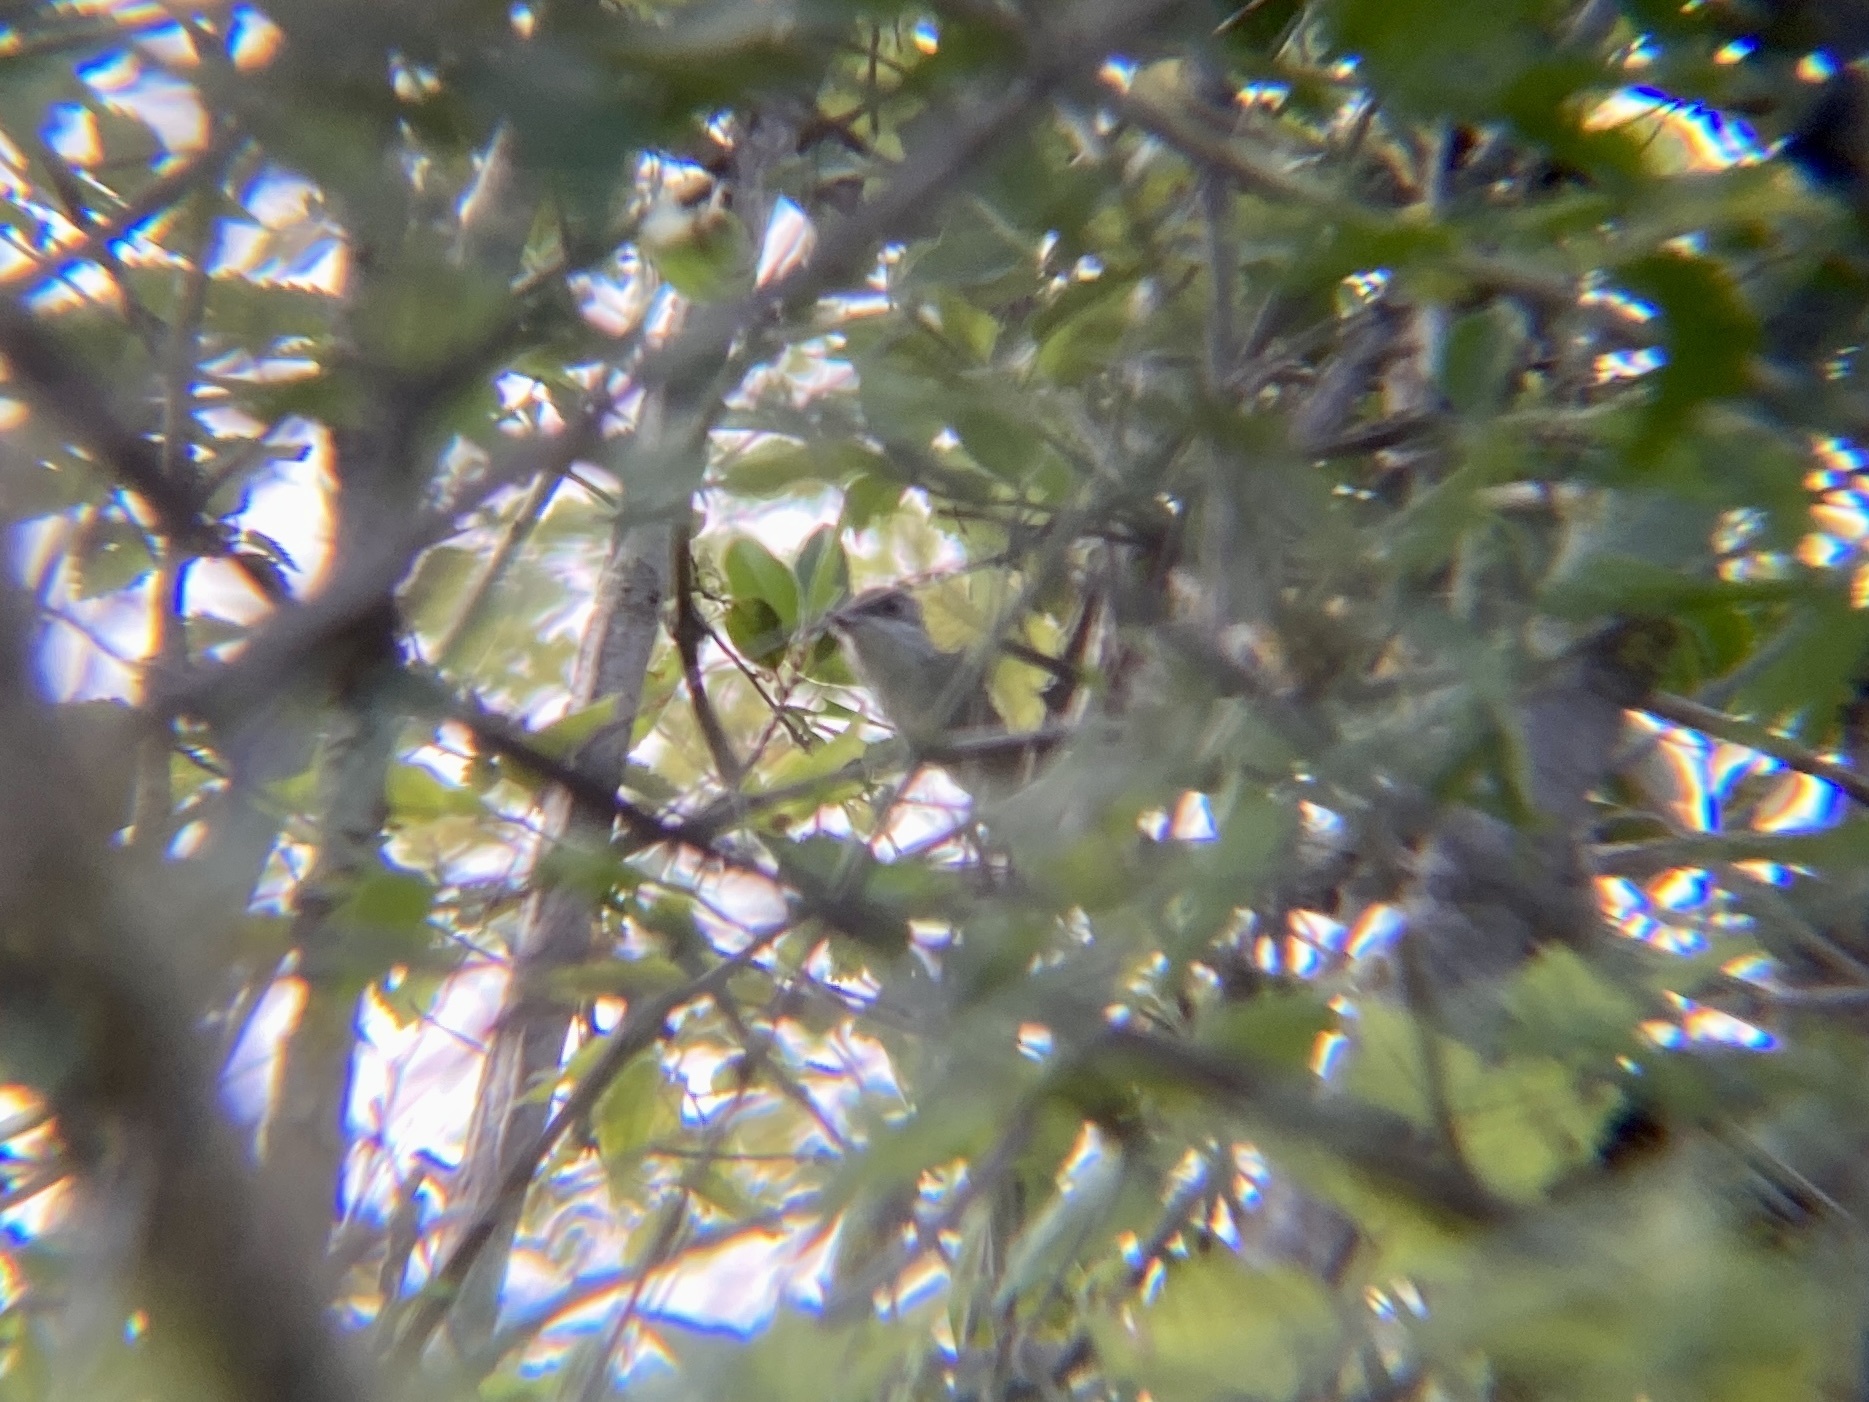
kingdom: Animalia
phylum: Chordata
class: Aves
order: Passeriformes
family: Sylviidae
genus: Curruca
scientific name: Curruca melanocephala
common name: Sardinian warbler
